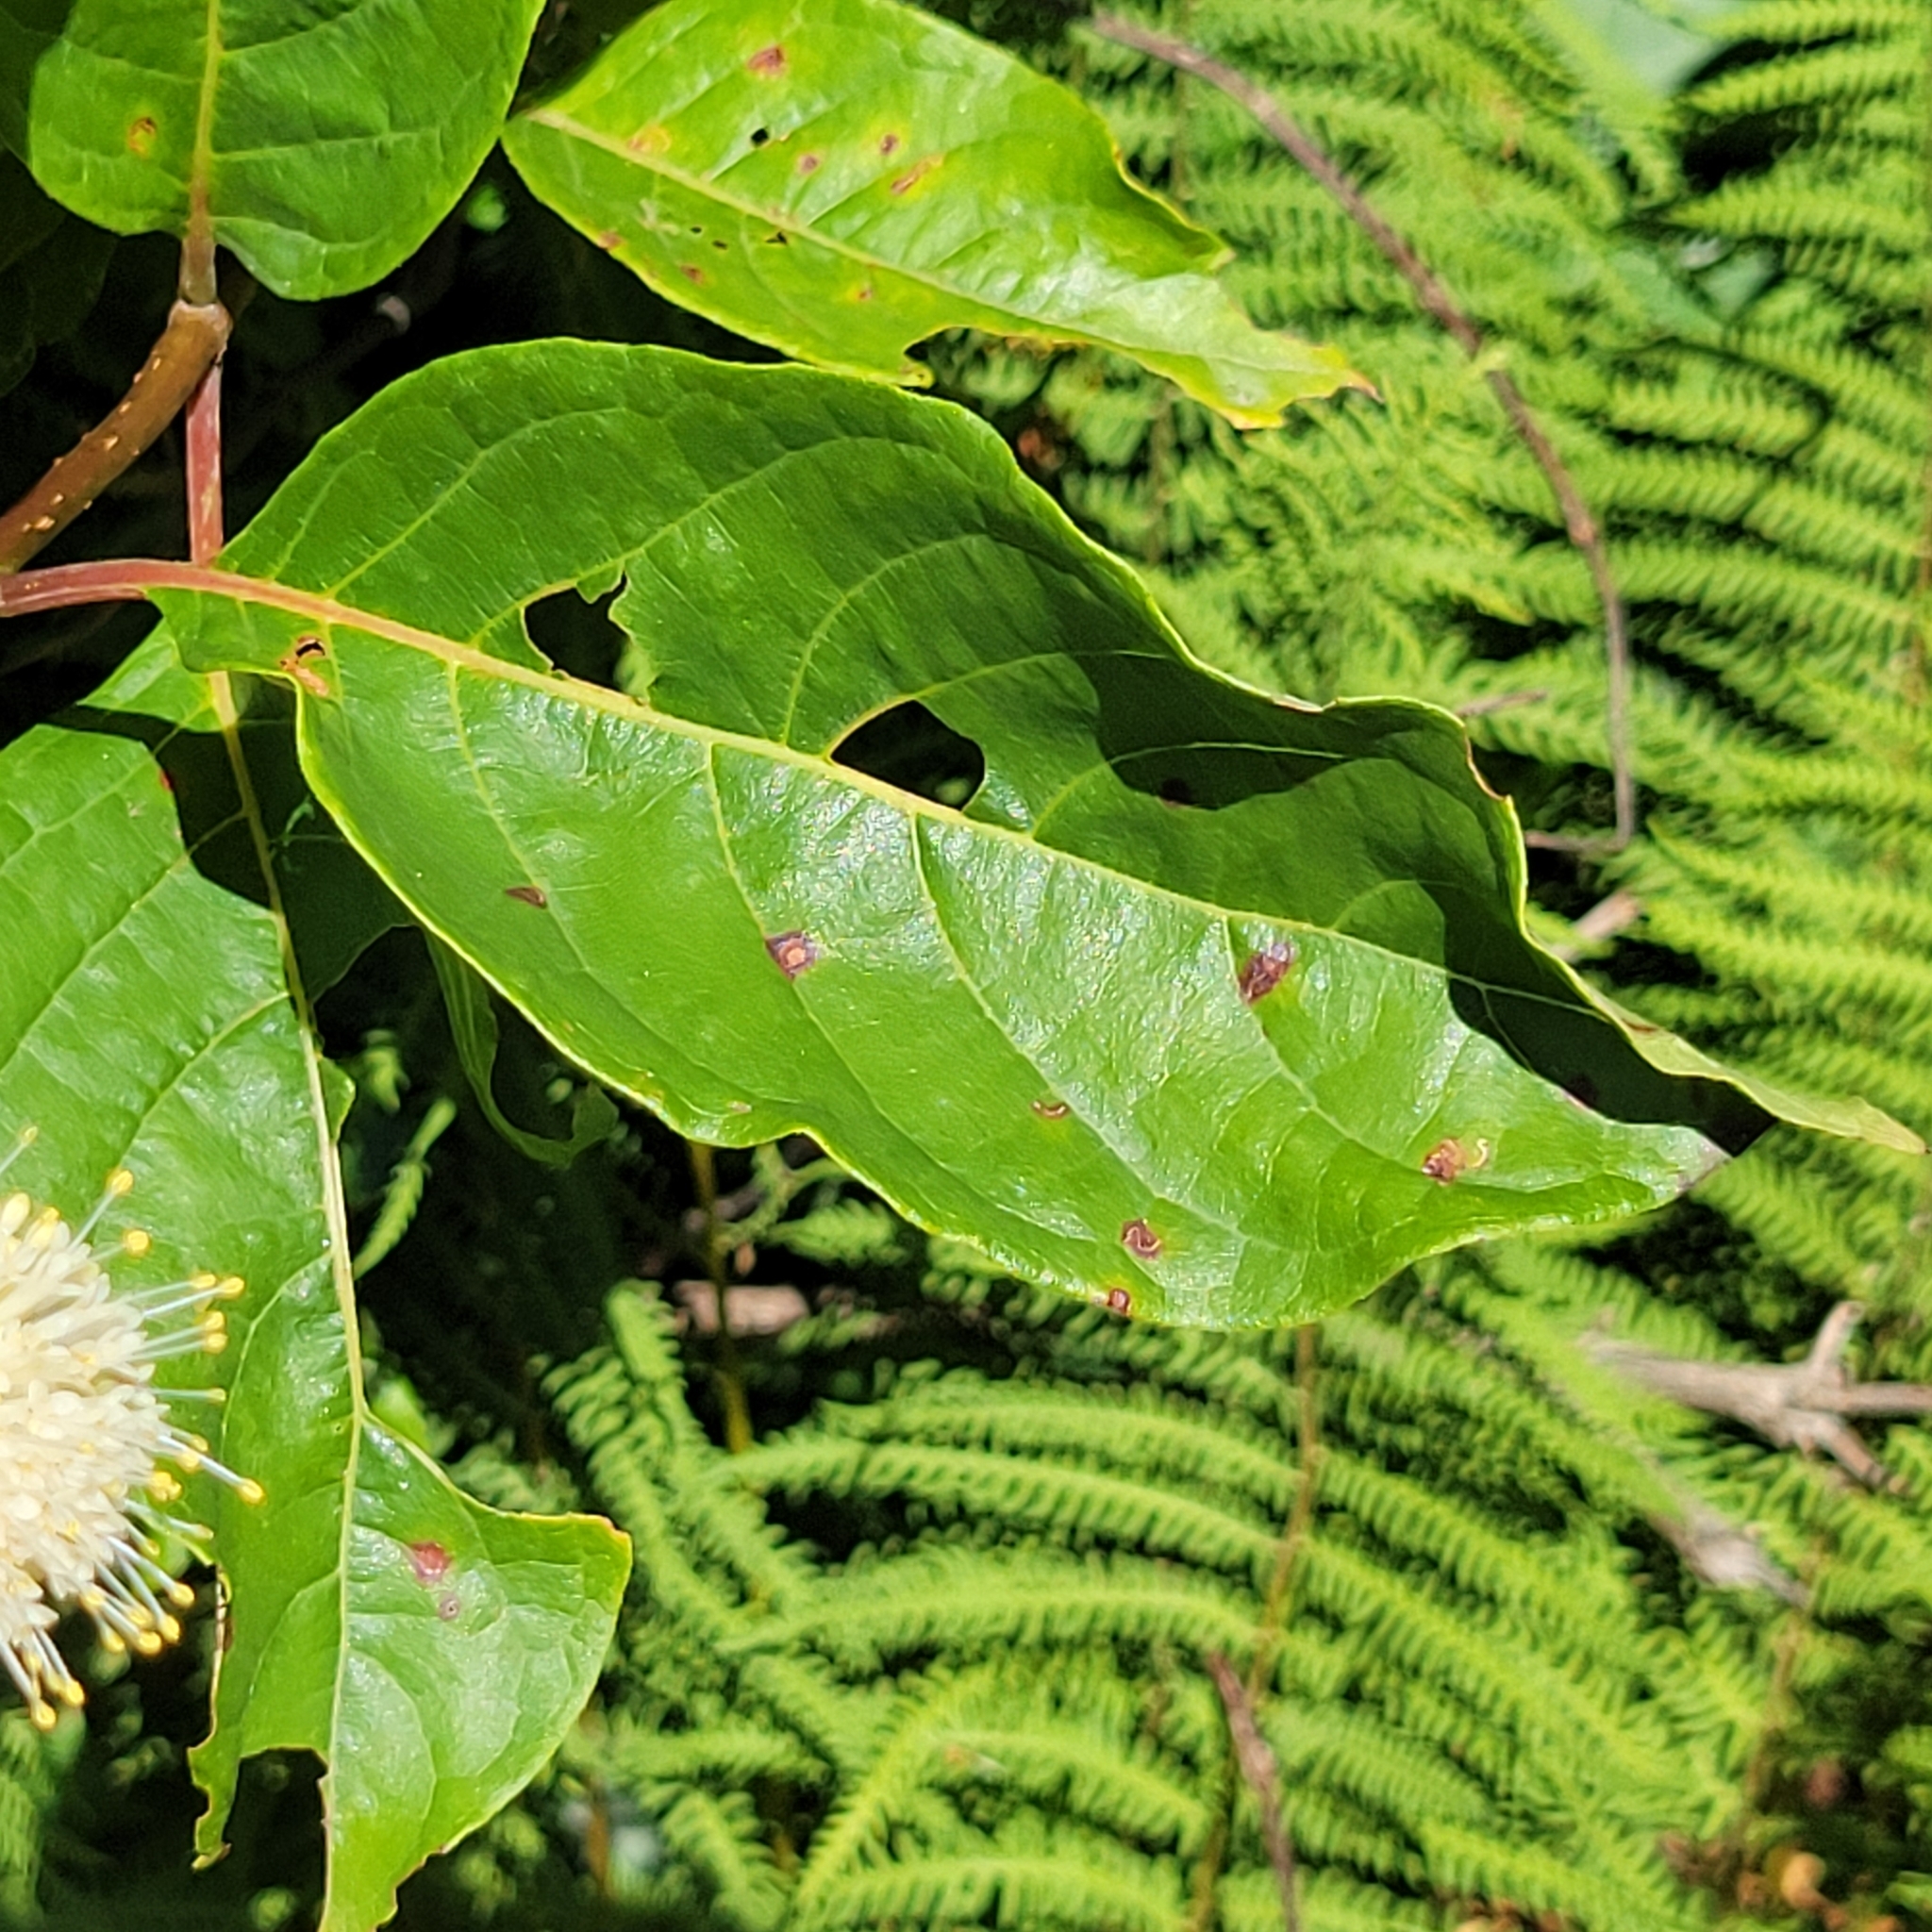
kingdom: Plantae
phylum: Tracheophyta
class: Magnoliopsida
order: Gentianales
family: Rubiaceae
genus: Cephalanthus
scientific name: Cephalanthus occidentalis
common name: Button-willow
